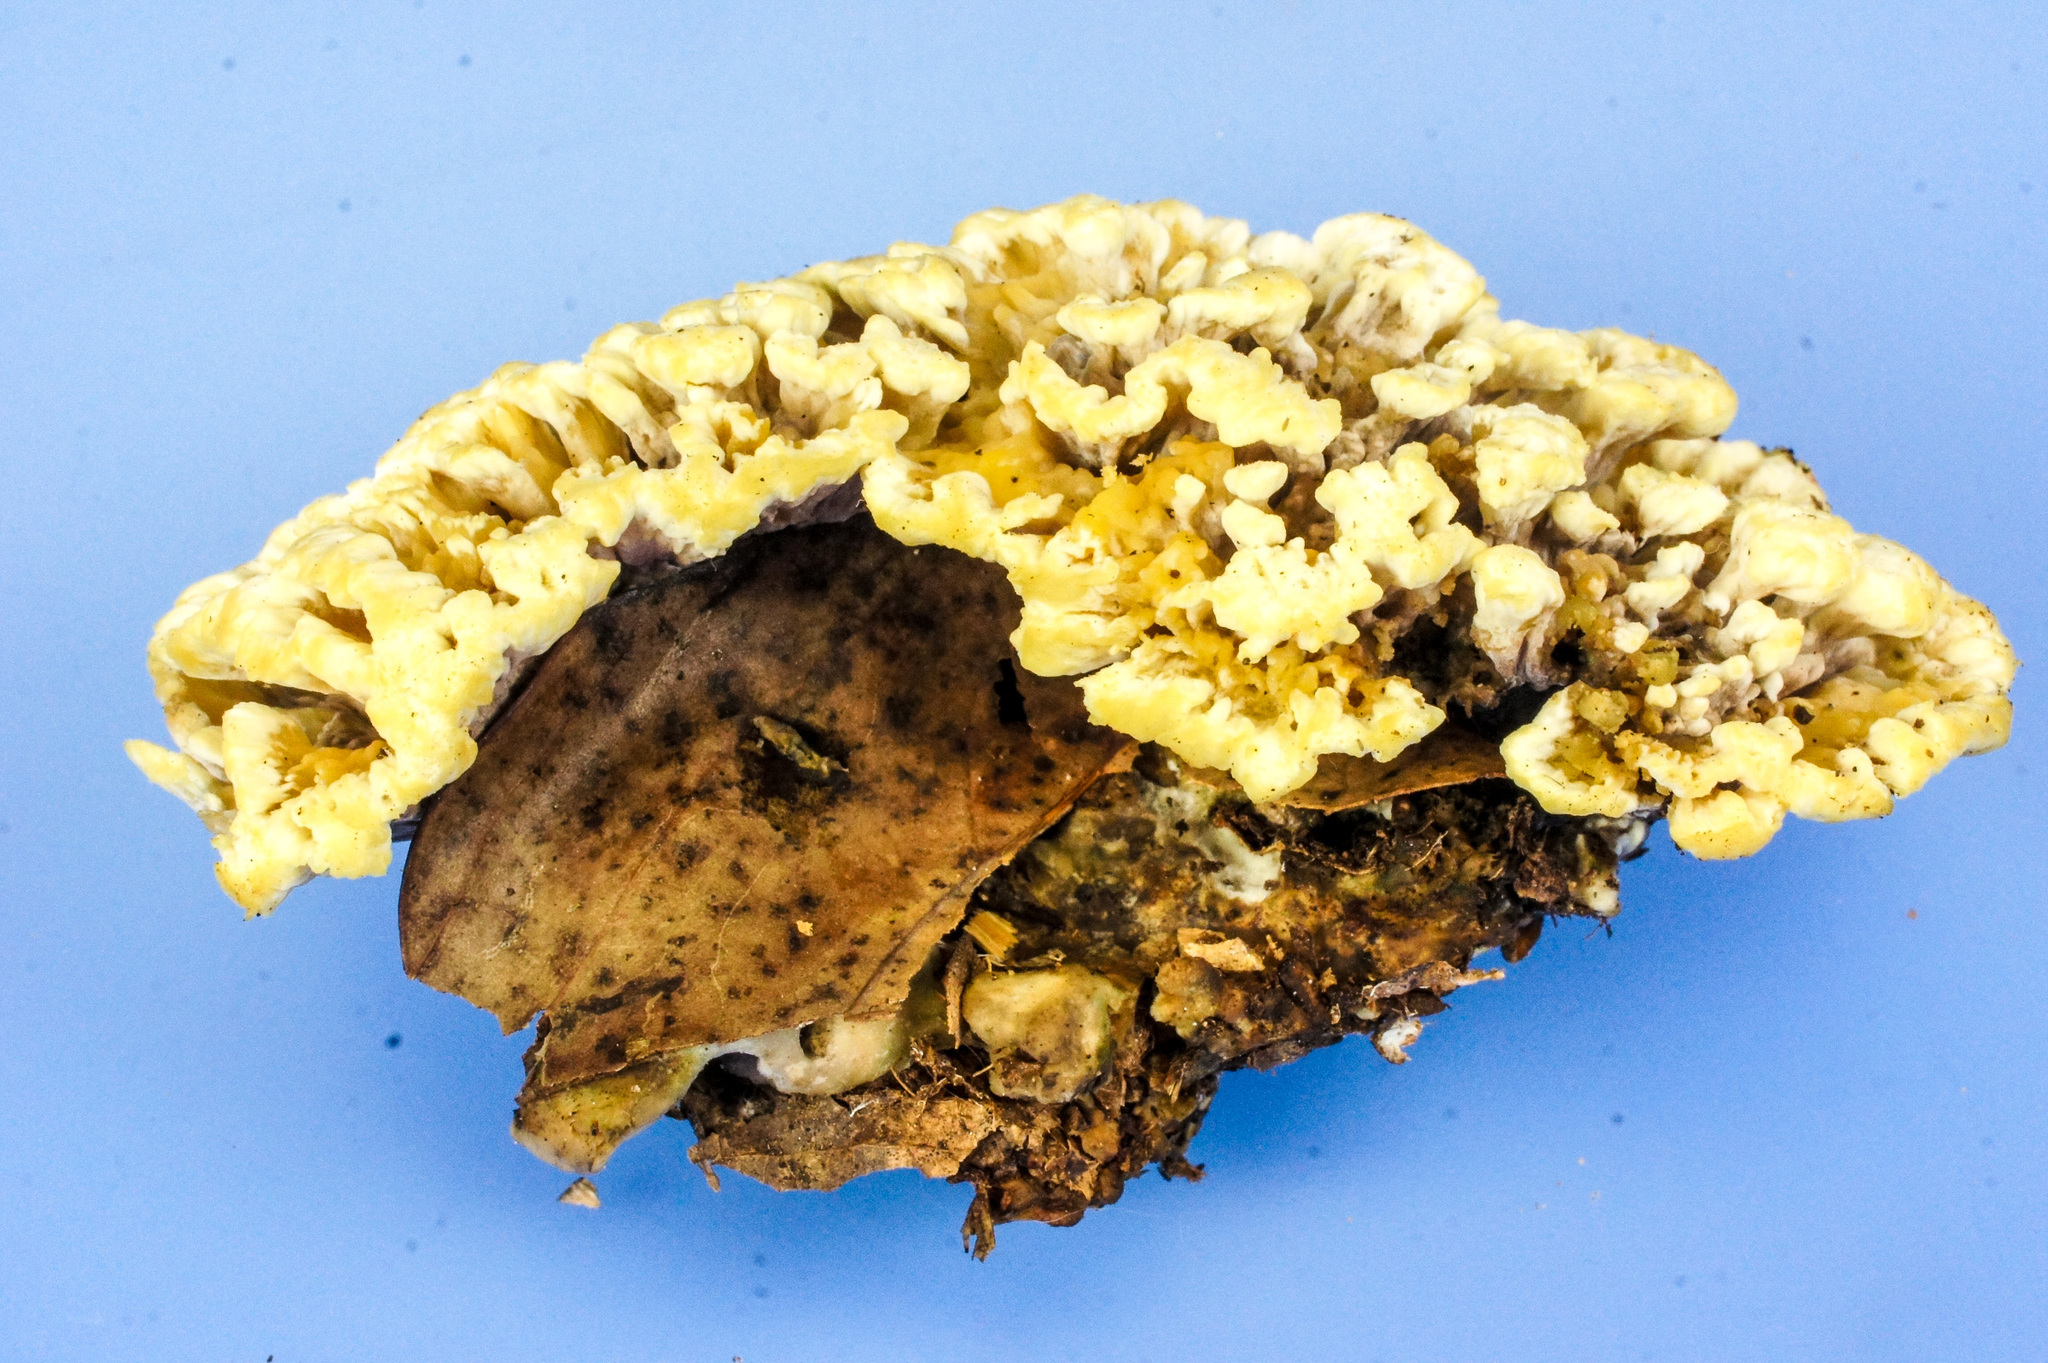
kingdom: Fungi
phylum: Basidiomycota
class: Agaricomycetes
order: Thelephorales
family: Thelephoraceae
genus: Thelephora
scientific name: Thelephora vialis
